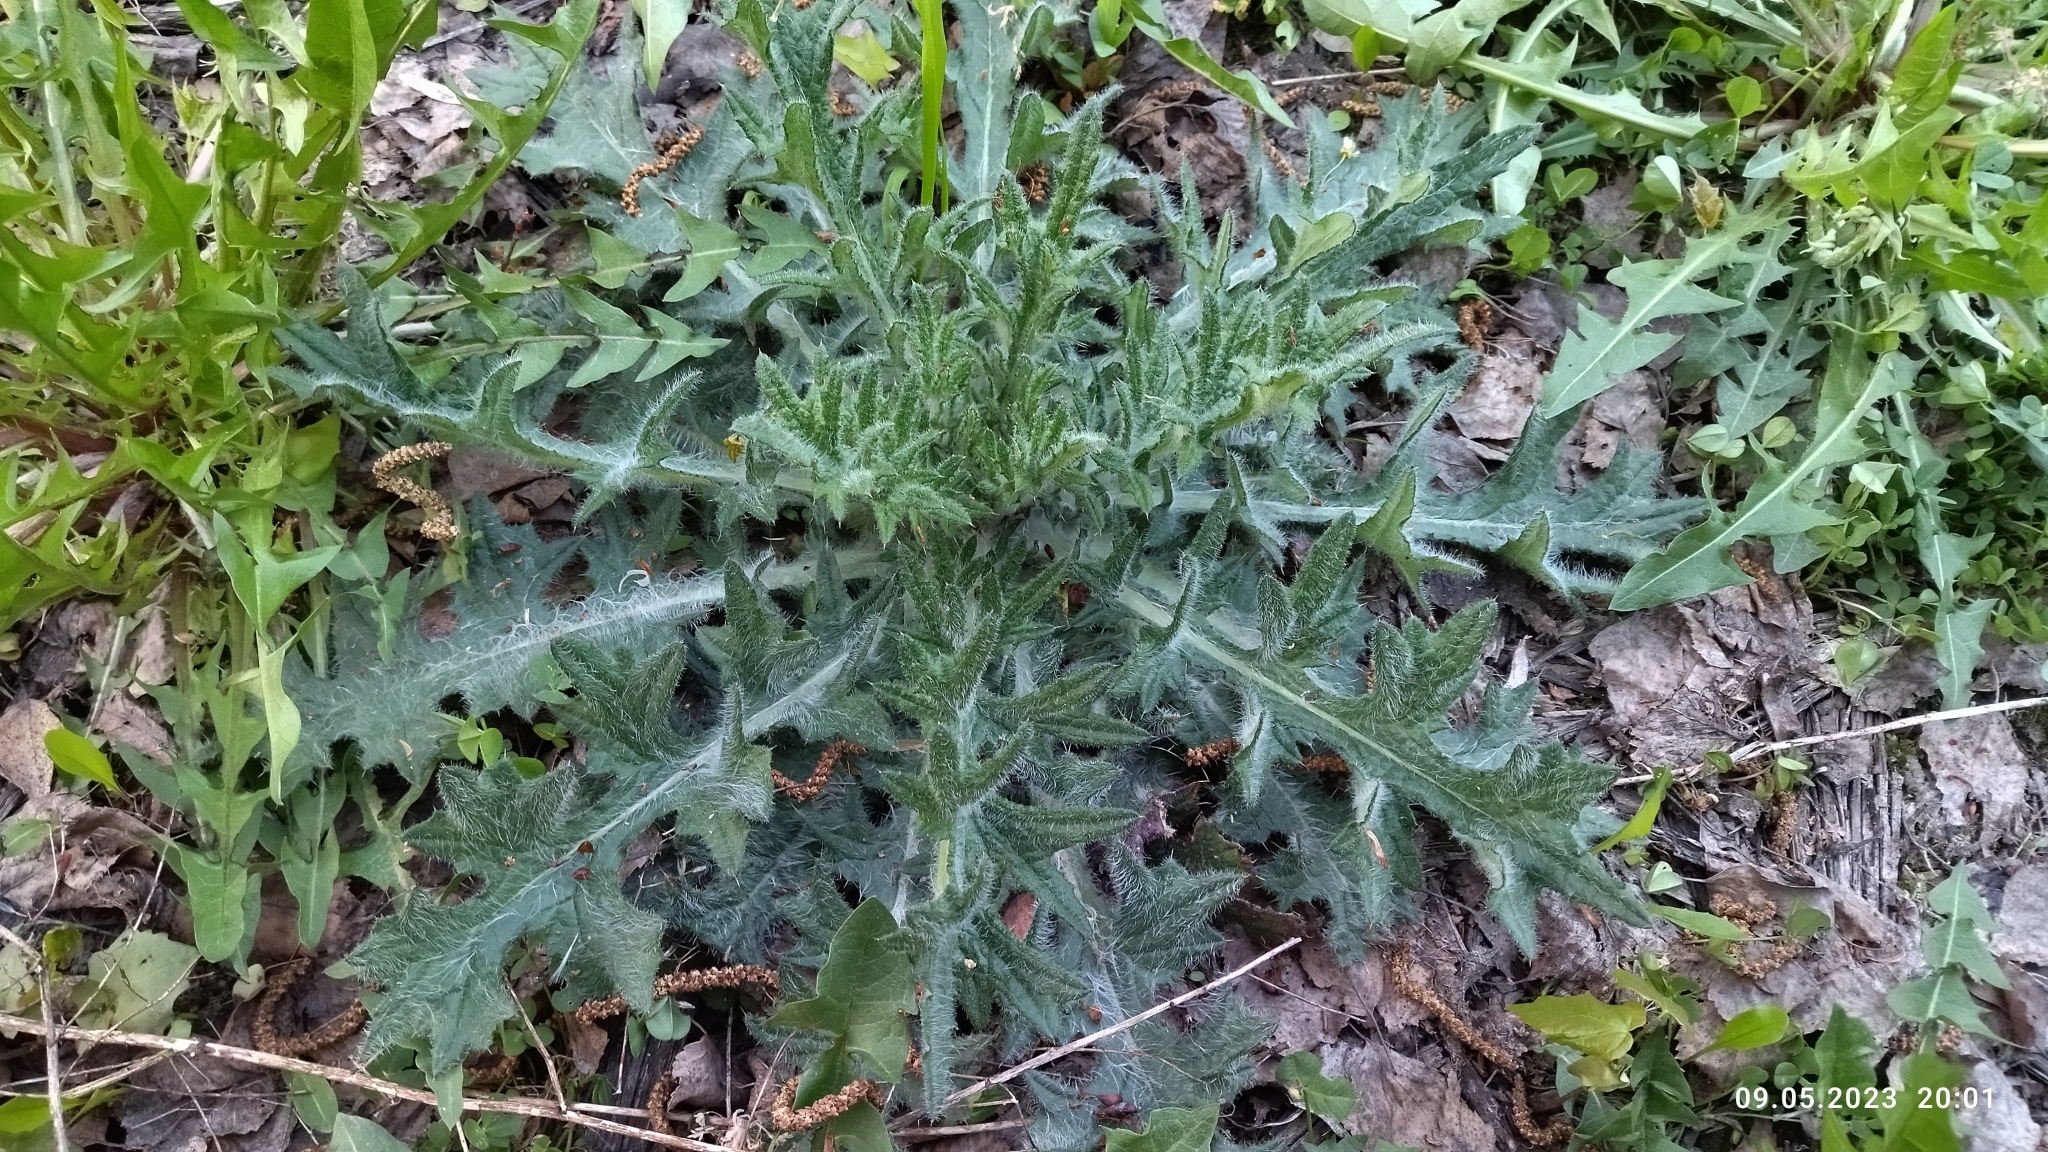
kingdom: Plantae
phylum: Tracheophyta
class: Magnoliopsida
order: Asterales
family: Asteraceae
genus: Cirsium
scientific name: Cirsium vulgare
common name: Bull thistle
